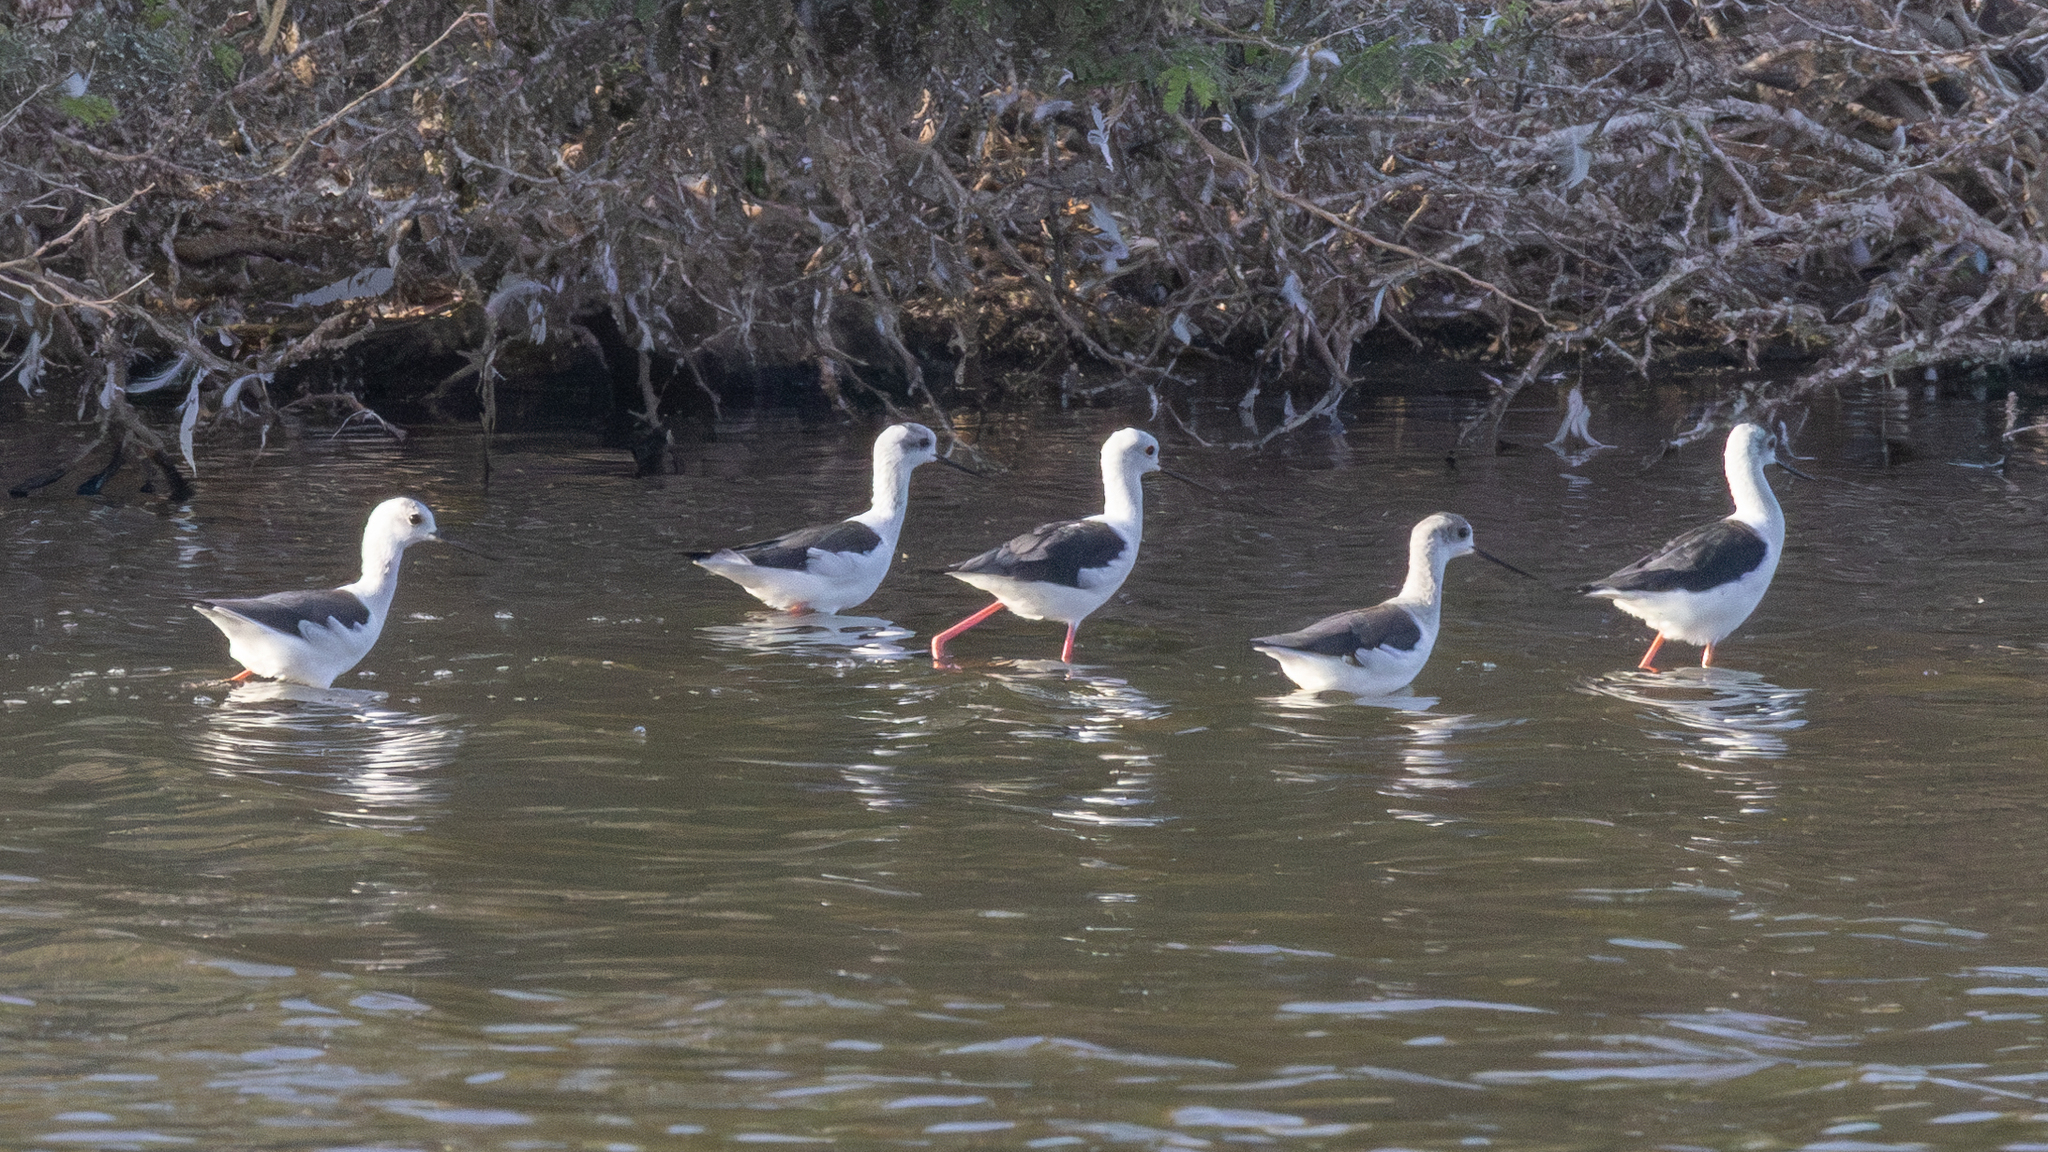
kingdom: Animalia
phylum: Chordata
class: Aves
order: Charadriiformes
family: Recurvirostridae
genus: Himantopus
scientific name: Himantopus himantopus
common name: Black-winged stilt
